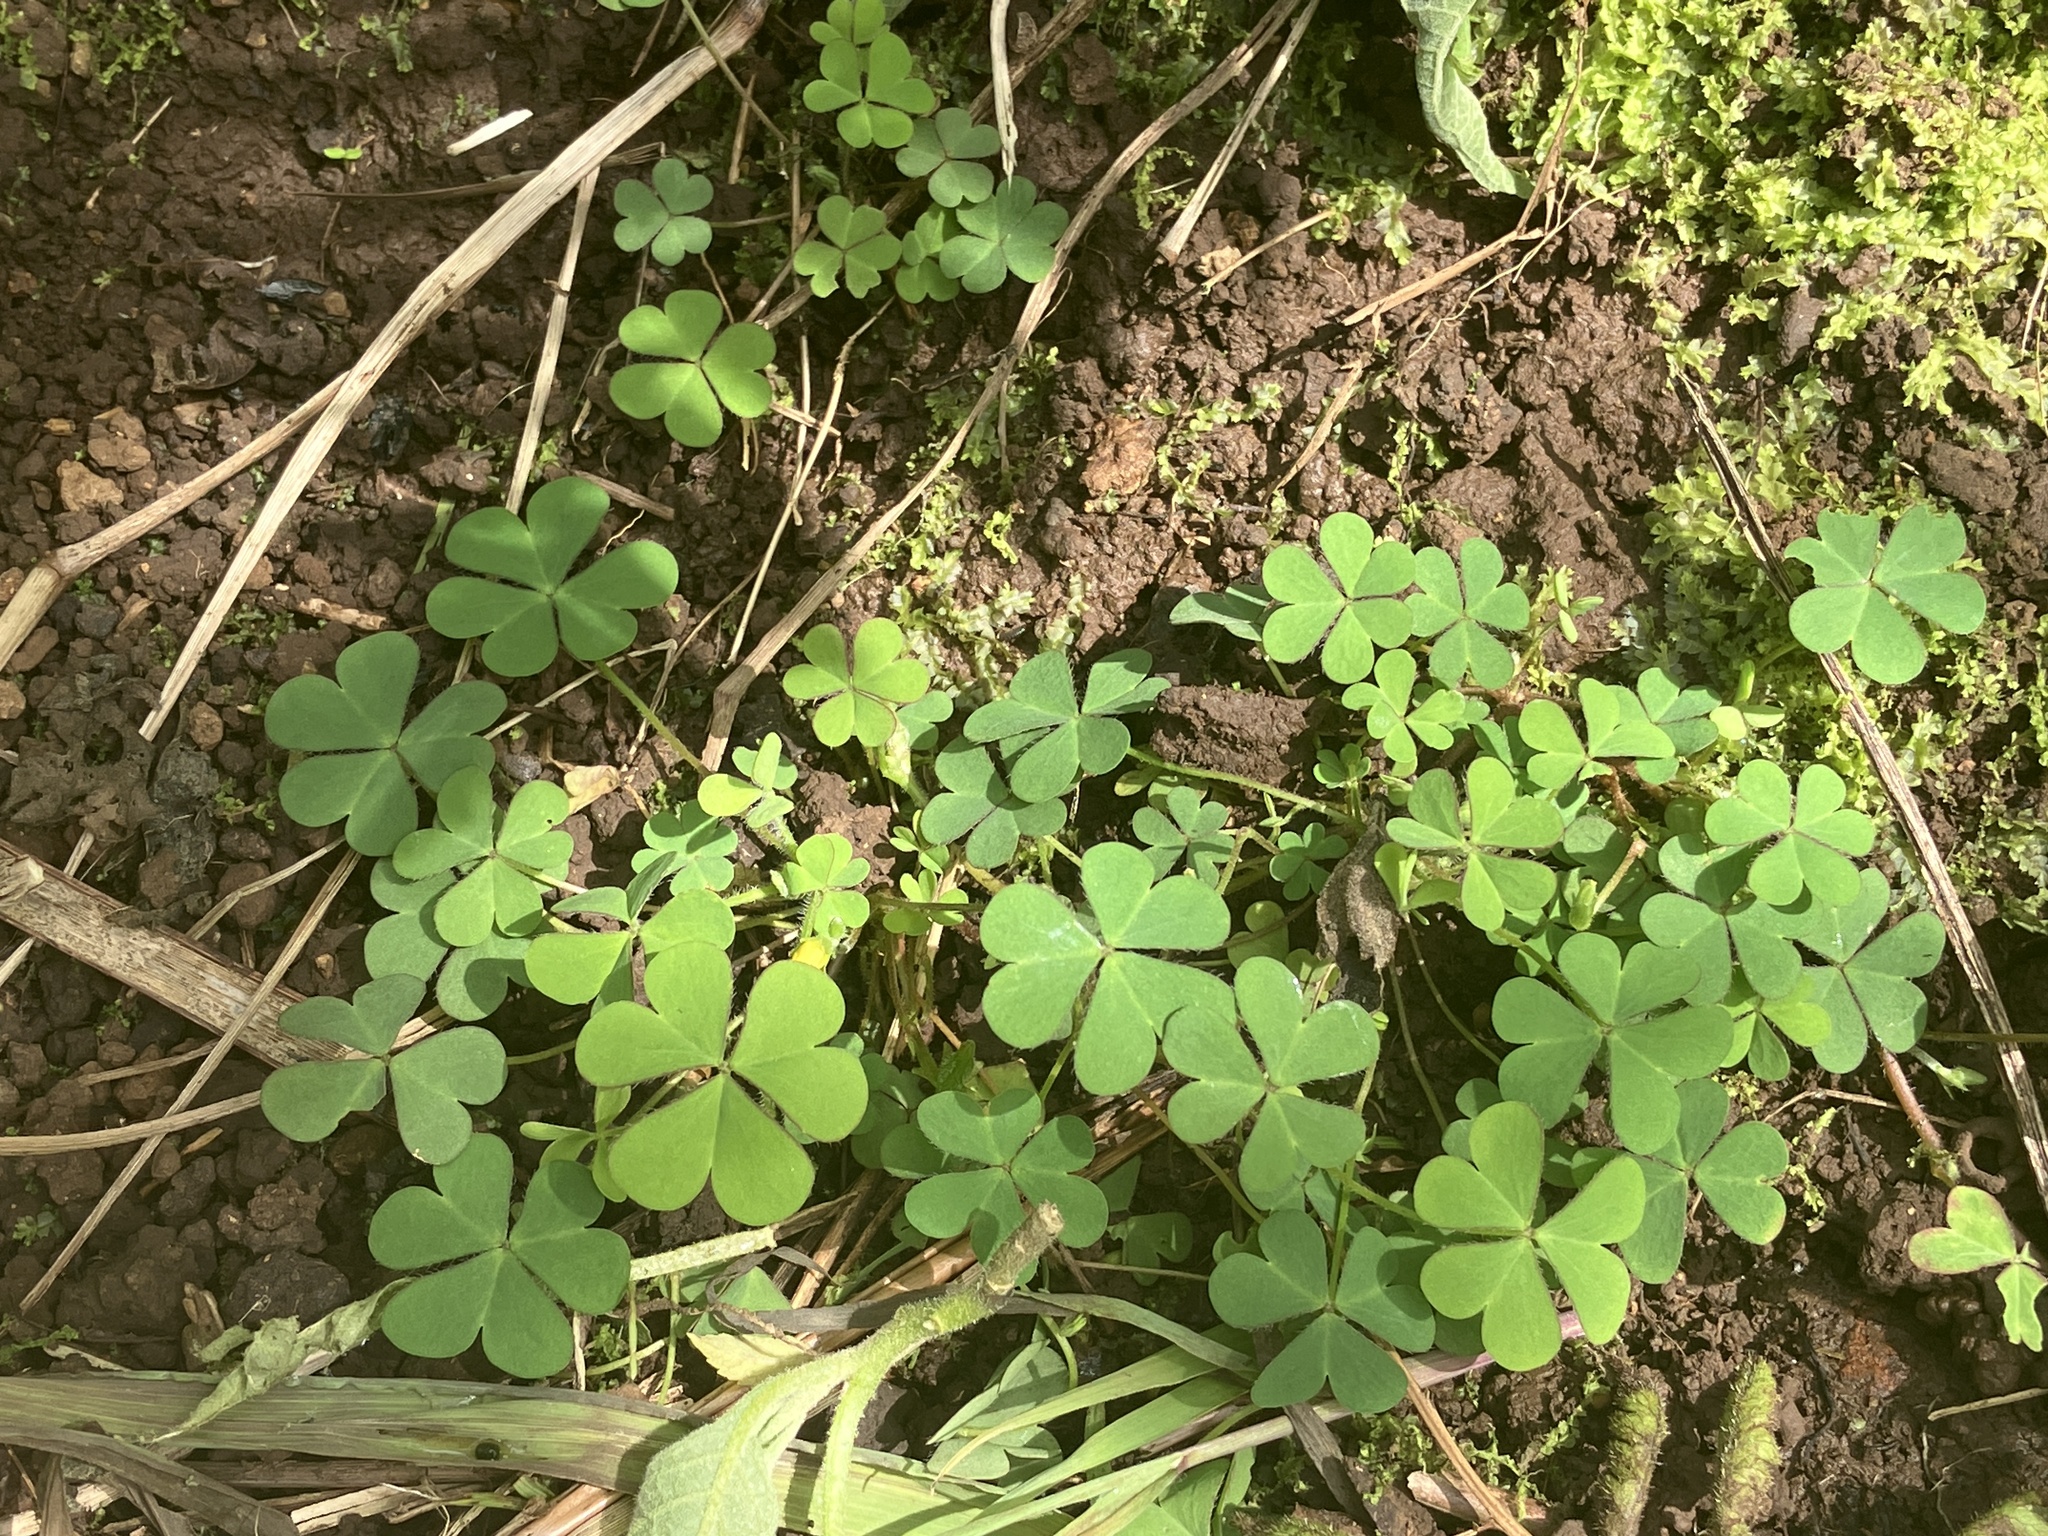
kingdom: Plantae
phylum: Tracheophyta
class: Magnoliopsida
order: Oxalidales
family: Oxalidaceae
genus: Oxalis
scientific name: Oxalis corniculata
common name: Procumbent yellow-sorrel
